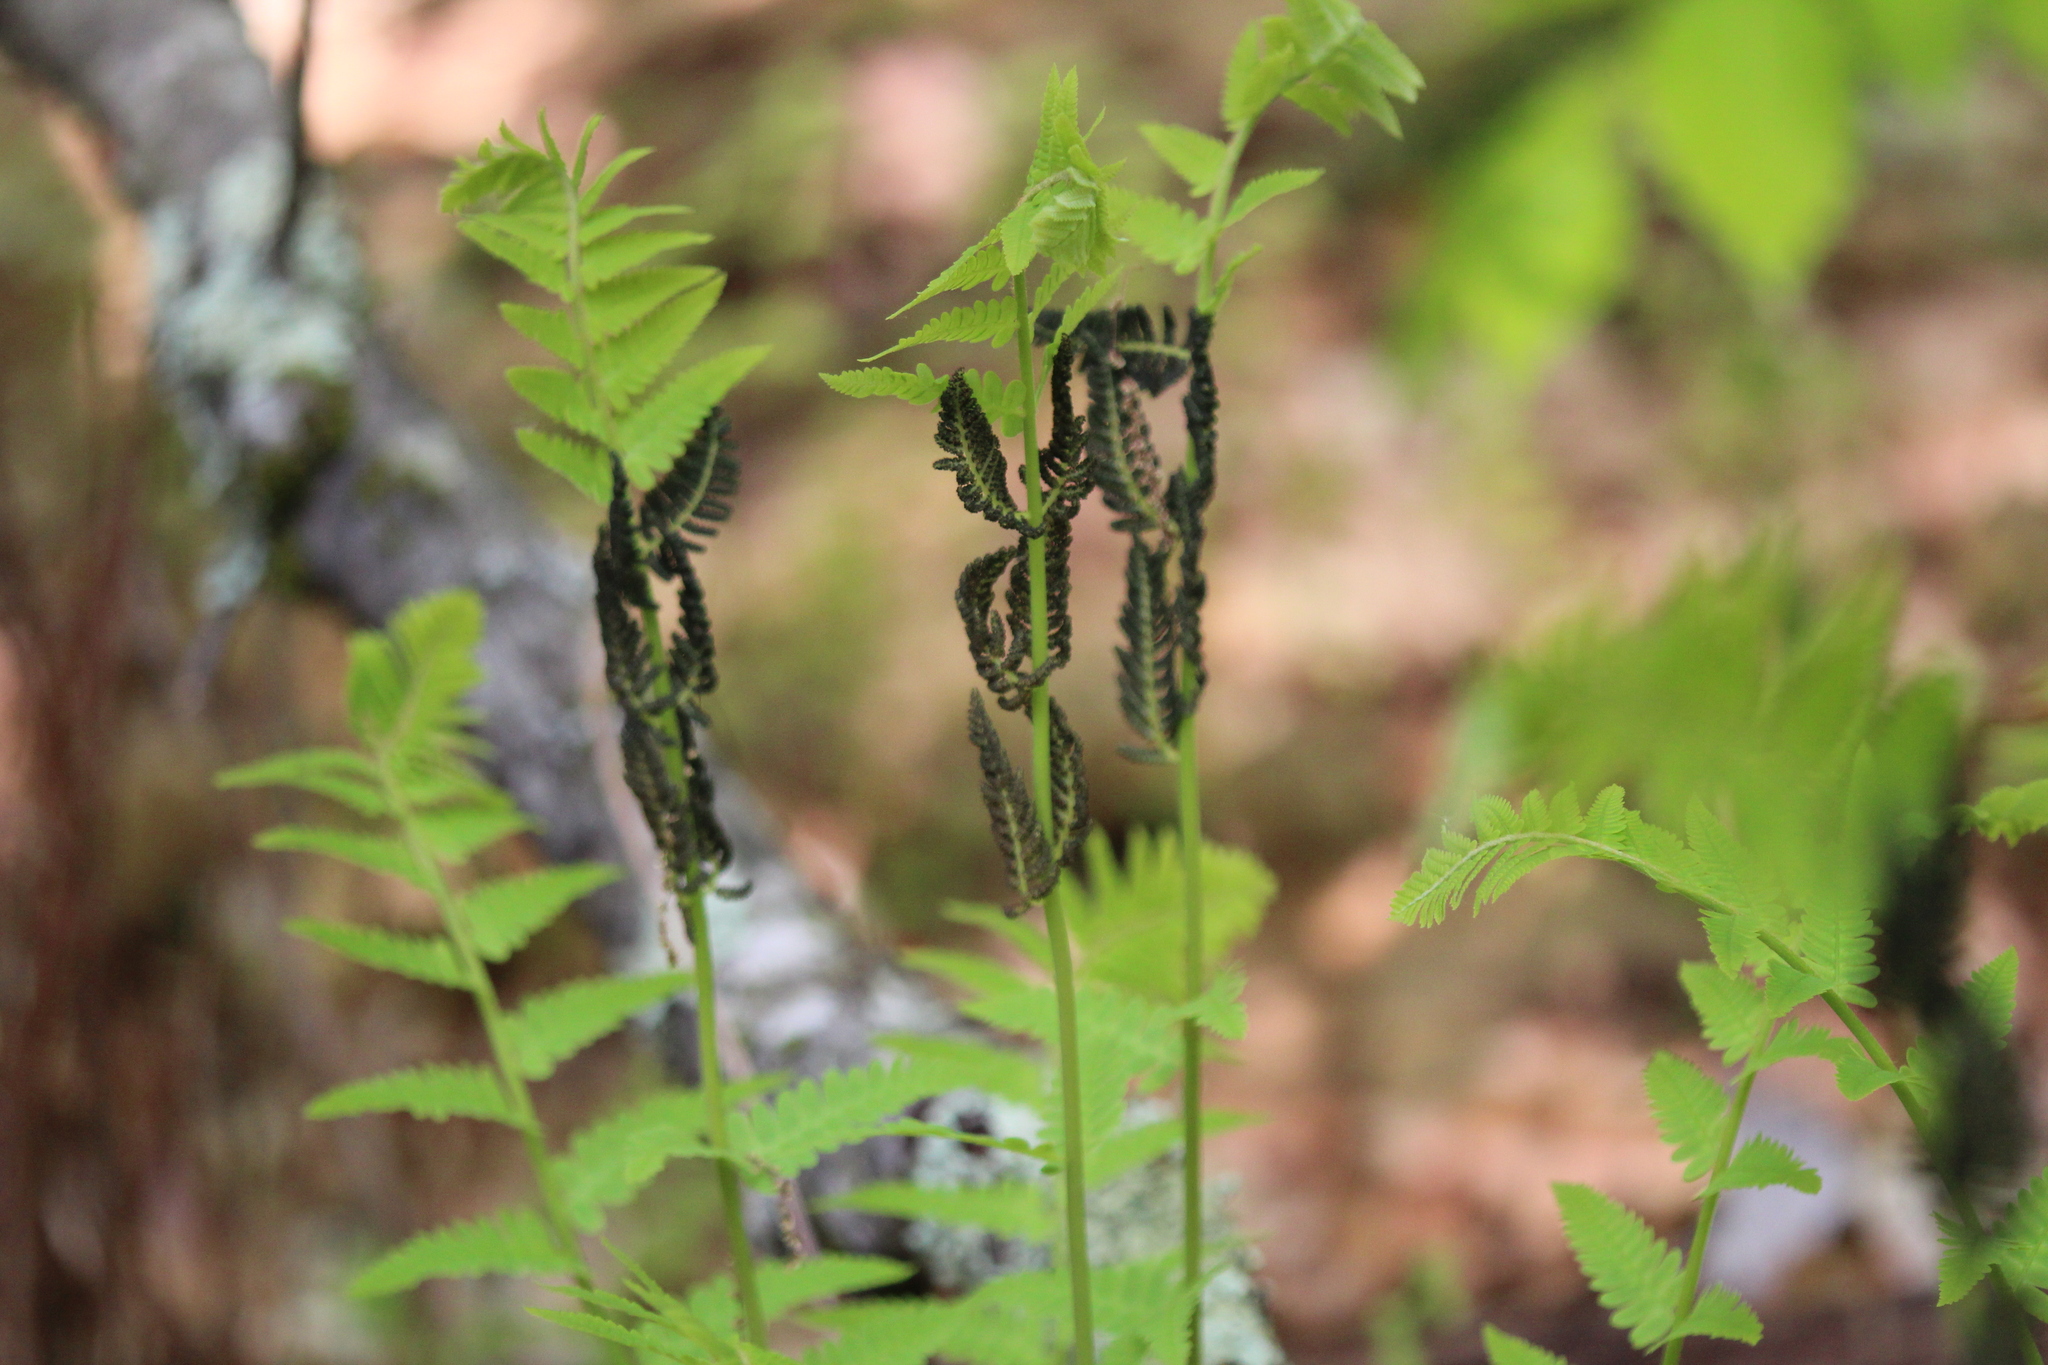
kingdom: Plantae
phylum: Tracheophyta
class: Polypodiopsida
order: Osmundales
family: Osmundaceae
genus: Claytosmunda
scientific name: Claytosmunda claytoniana
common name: Clayton's fern
